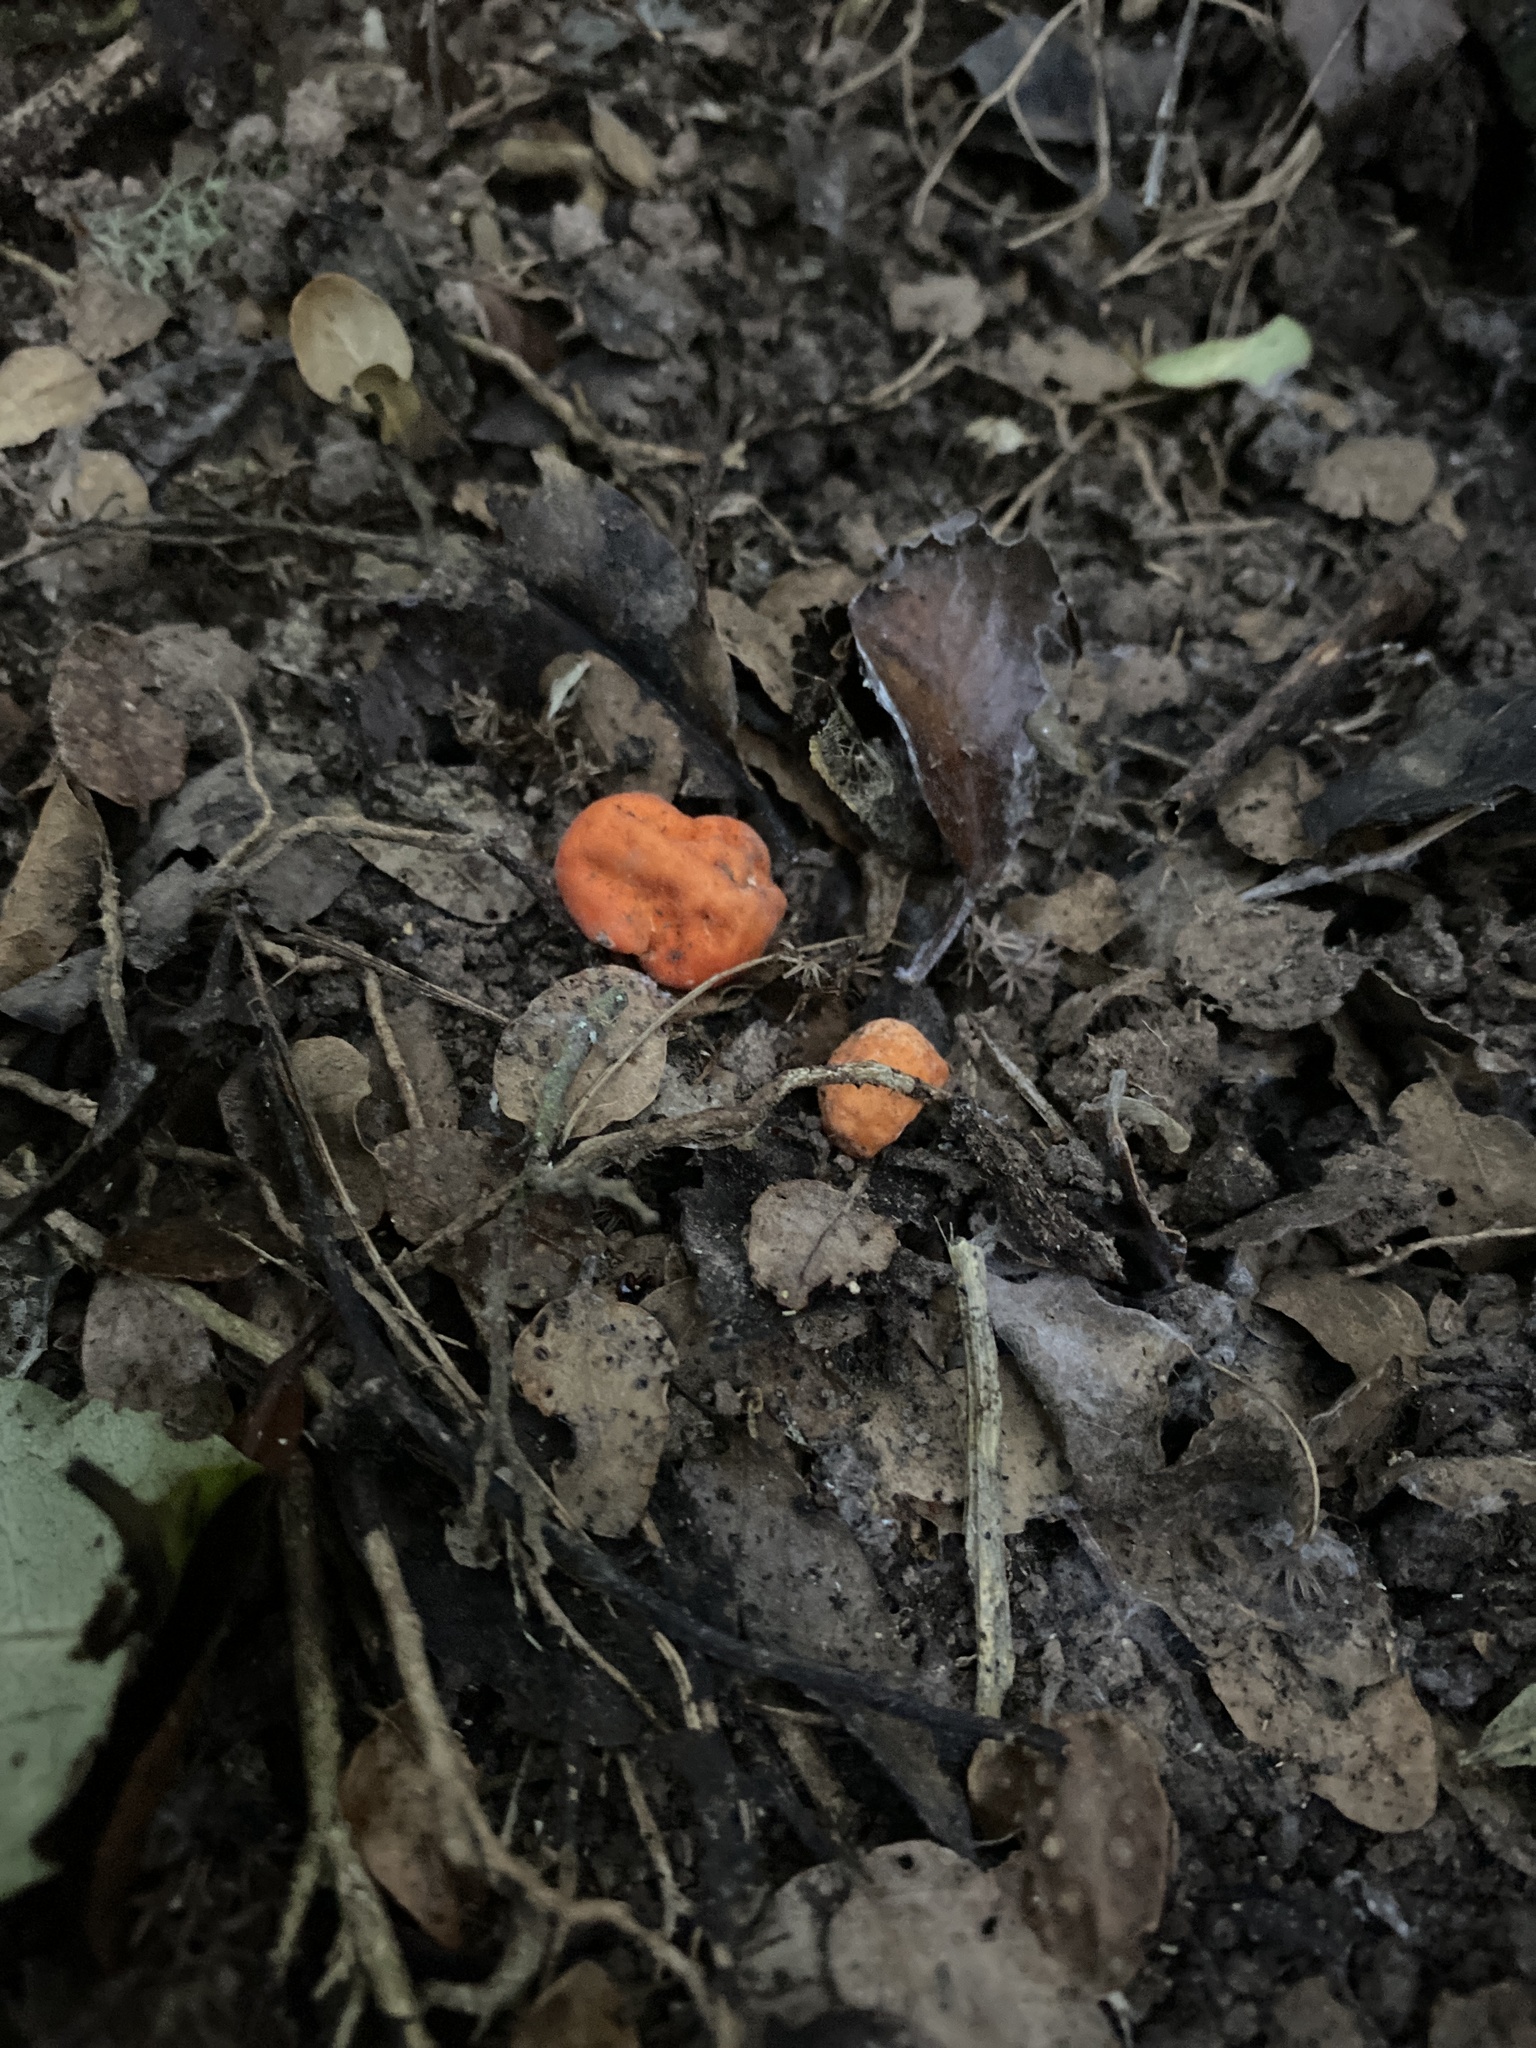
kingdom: Fungi
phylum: Ascomycota
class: Pezizomycetes
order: Pezizales
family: Pyronemataceae
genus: Paurocotylis
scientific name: Paurocotylis pila
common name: Scarlet berry truffle
